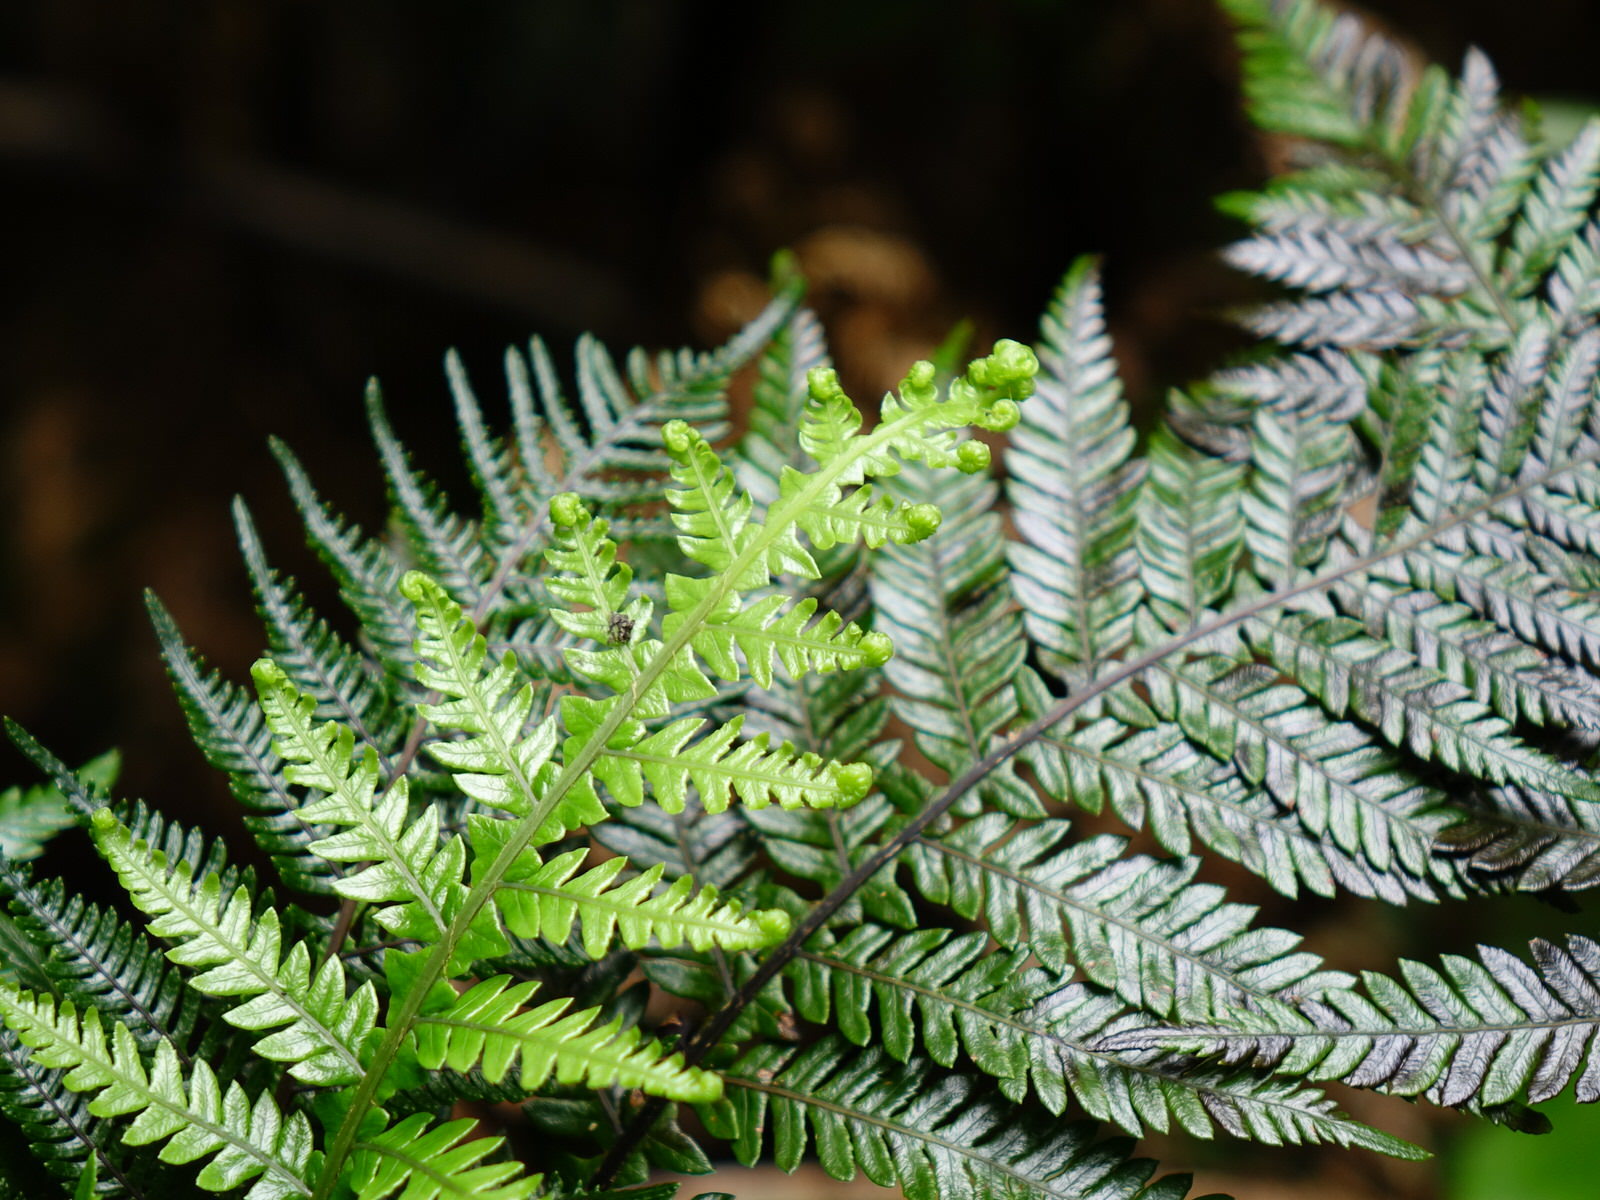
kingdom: Plantae
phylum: Tracheophyta
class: Polypodiopsida
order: Polypodiales
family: Blechnaceae
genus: Diploblechnum
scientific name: Diploblechnum fraseri
